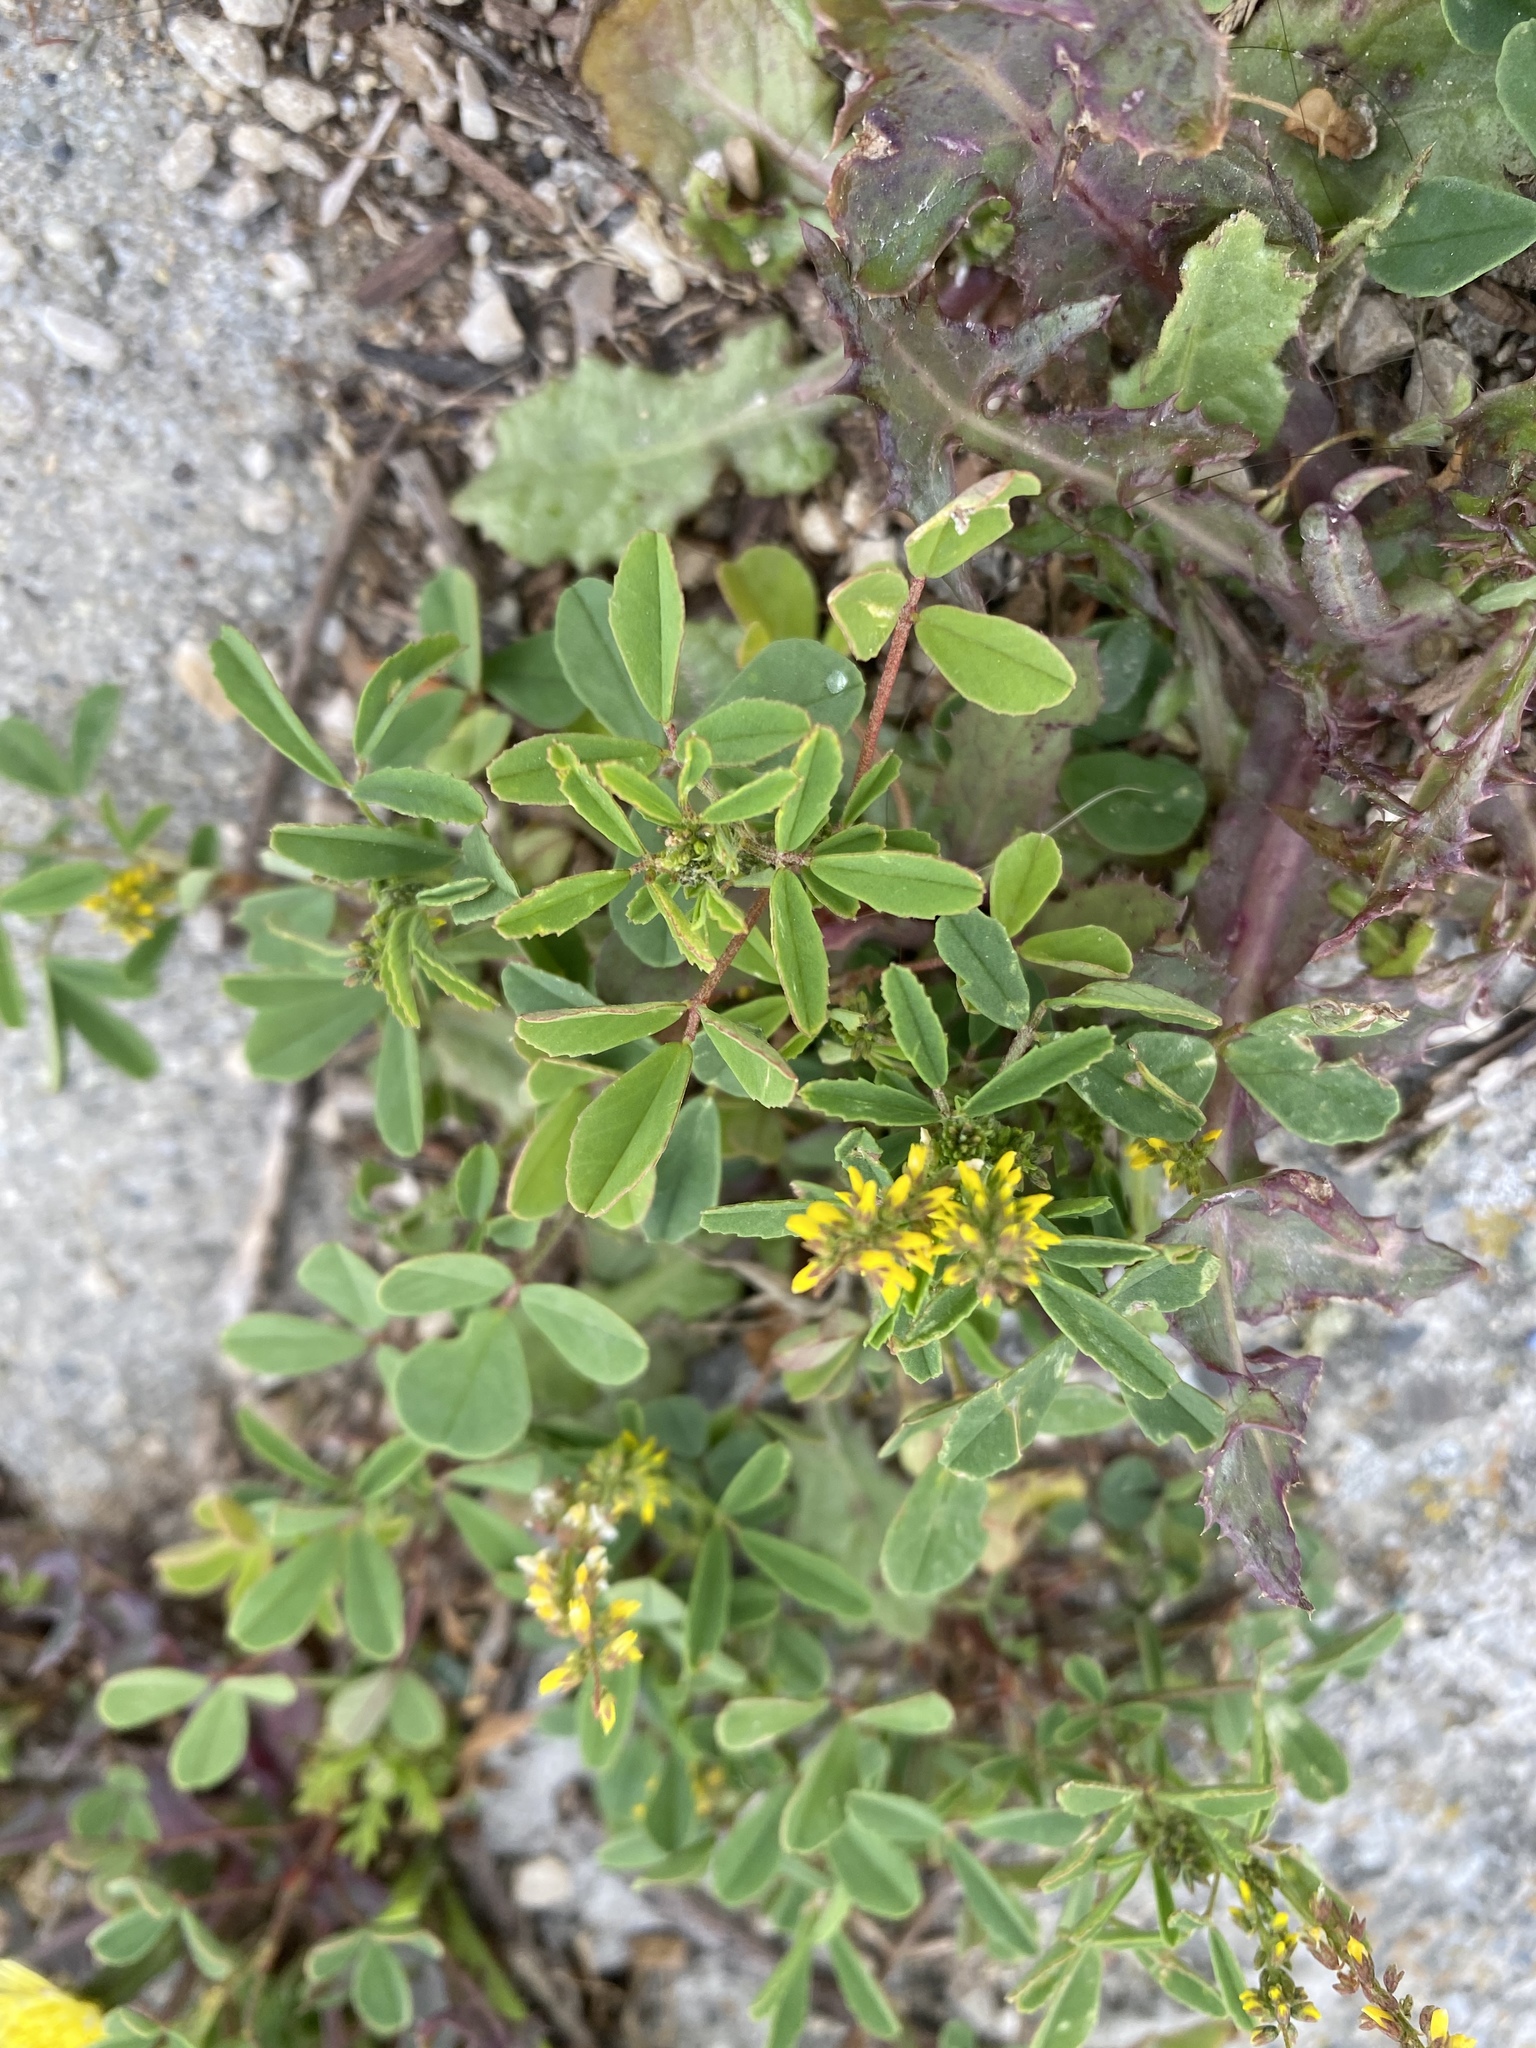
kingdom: Plantae
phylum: Tracheophyta
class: Magnoliopsida
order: Fabales
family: Fabaceae
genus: Melilotus
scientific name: Melilotus indicus
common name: Small melilot
